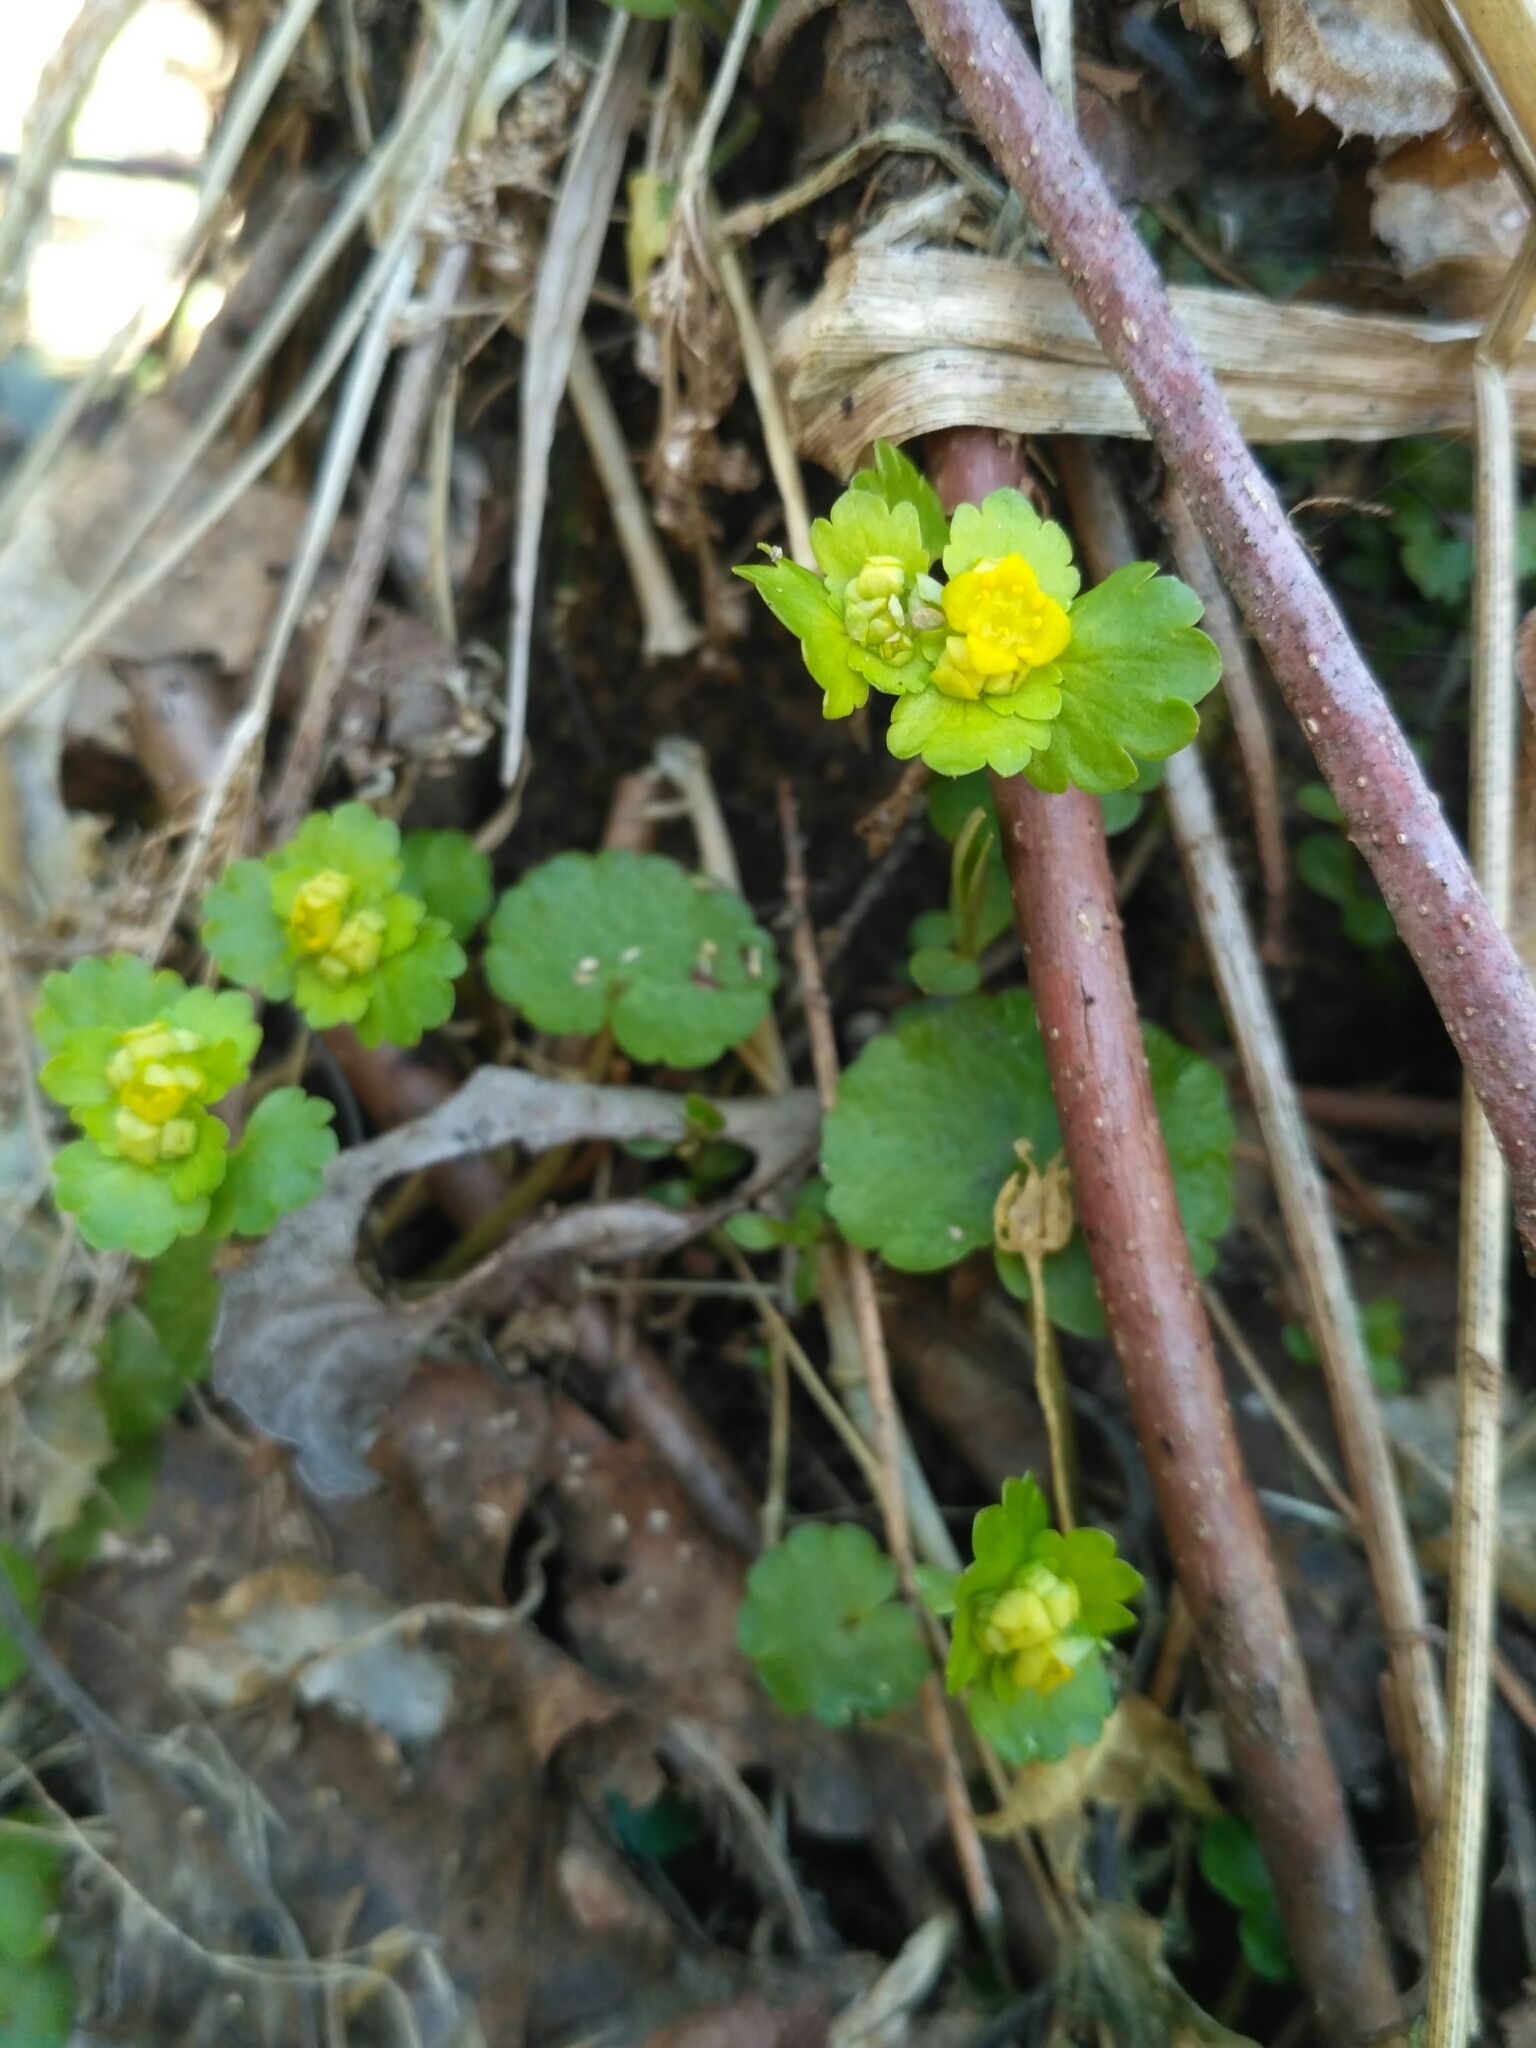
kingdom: Plantae
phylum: Tracheophyta
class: Magnoliopsida
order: Saxifragales
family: Saxifragaceae
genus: Chrysosplenium
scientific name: Chrysosplenium alternifolium
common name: Alternate-leaved golden-saxifrage
